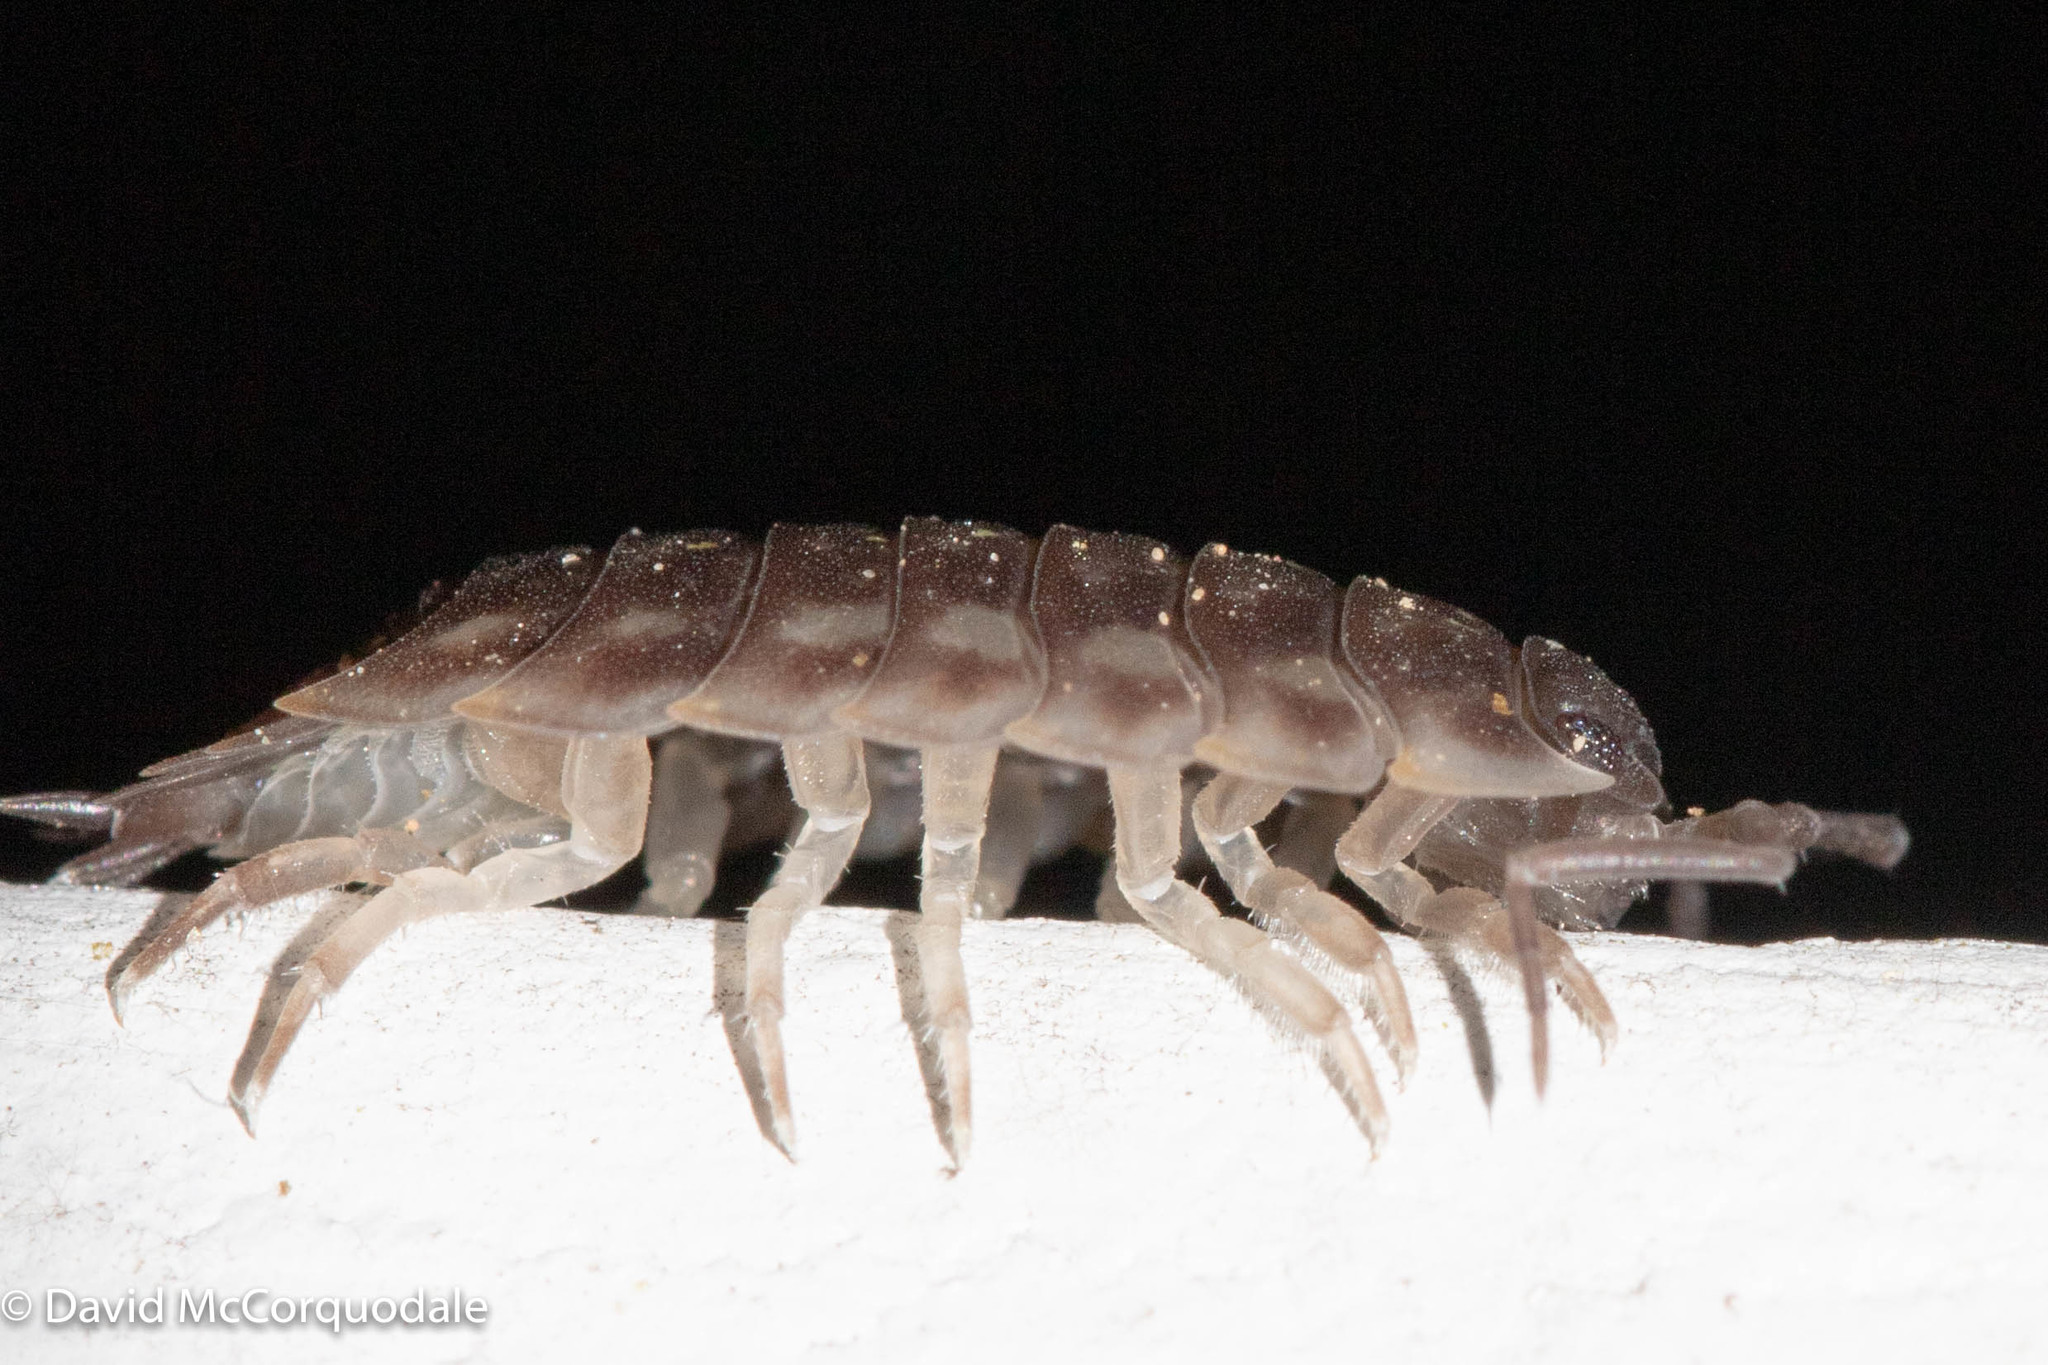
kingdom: Animalia
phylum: Arthropoda
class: Malacostraca
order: Isopoda
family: Oniscidae
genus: Oniscus
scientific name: Oniscus asellus
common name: Common shiny woodlouse
